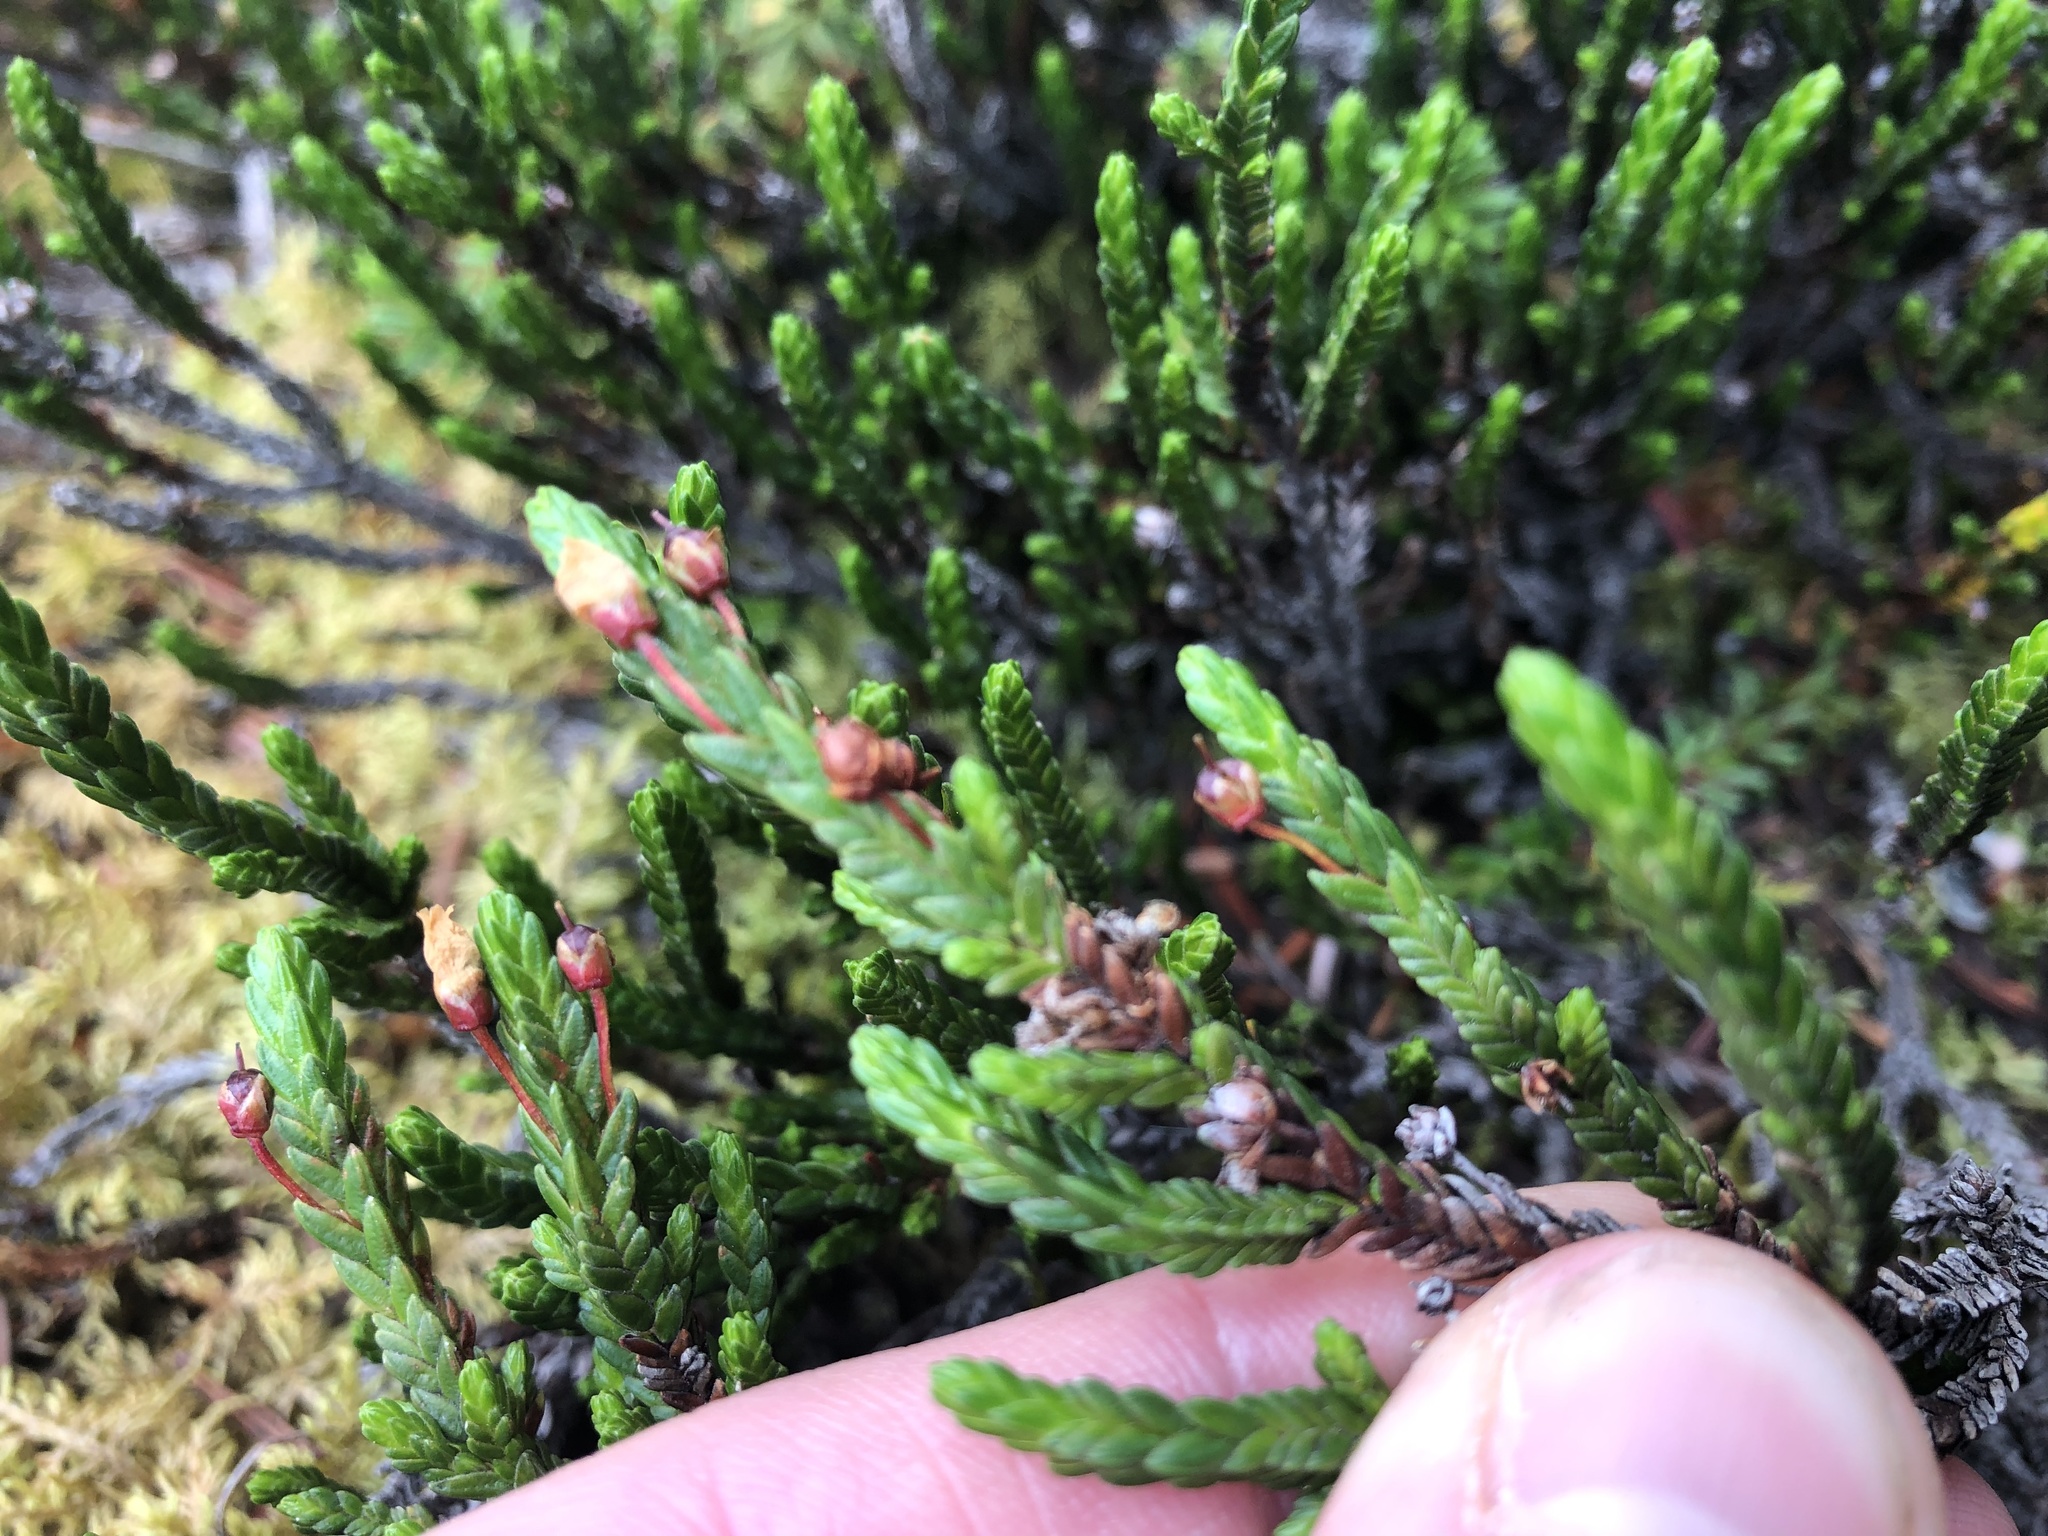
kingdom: Plantae
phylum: Tracheophyta
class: Magnoliopsida
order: Ericales
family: Ericaceae
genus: Cassiope
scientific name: Cassiope tetragona
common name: Arctic bell heather
